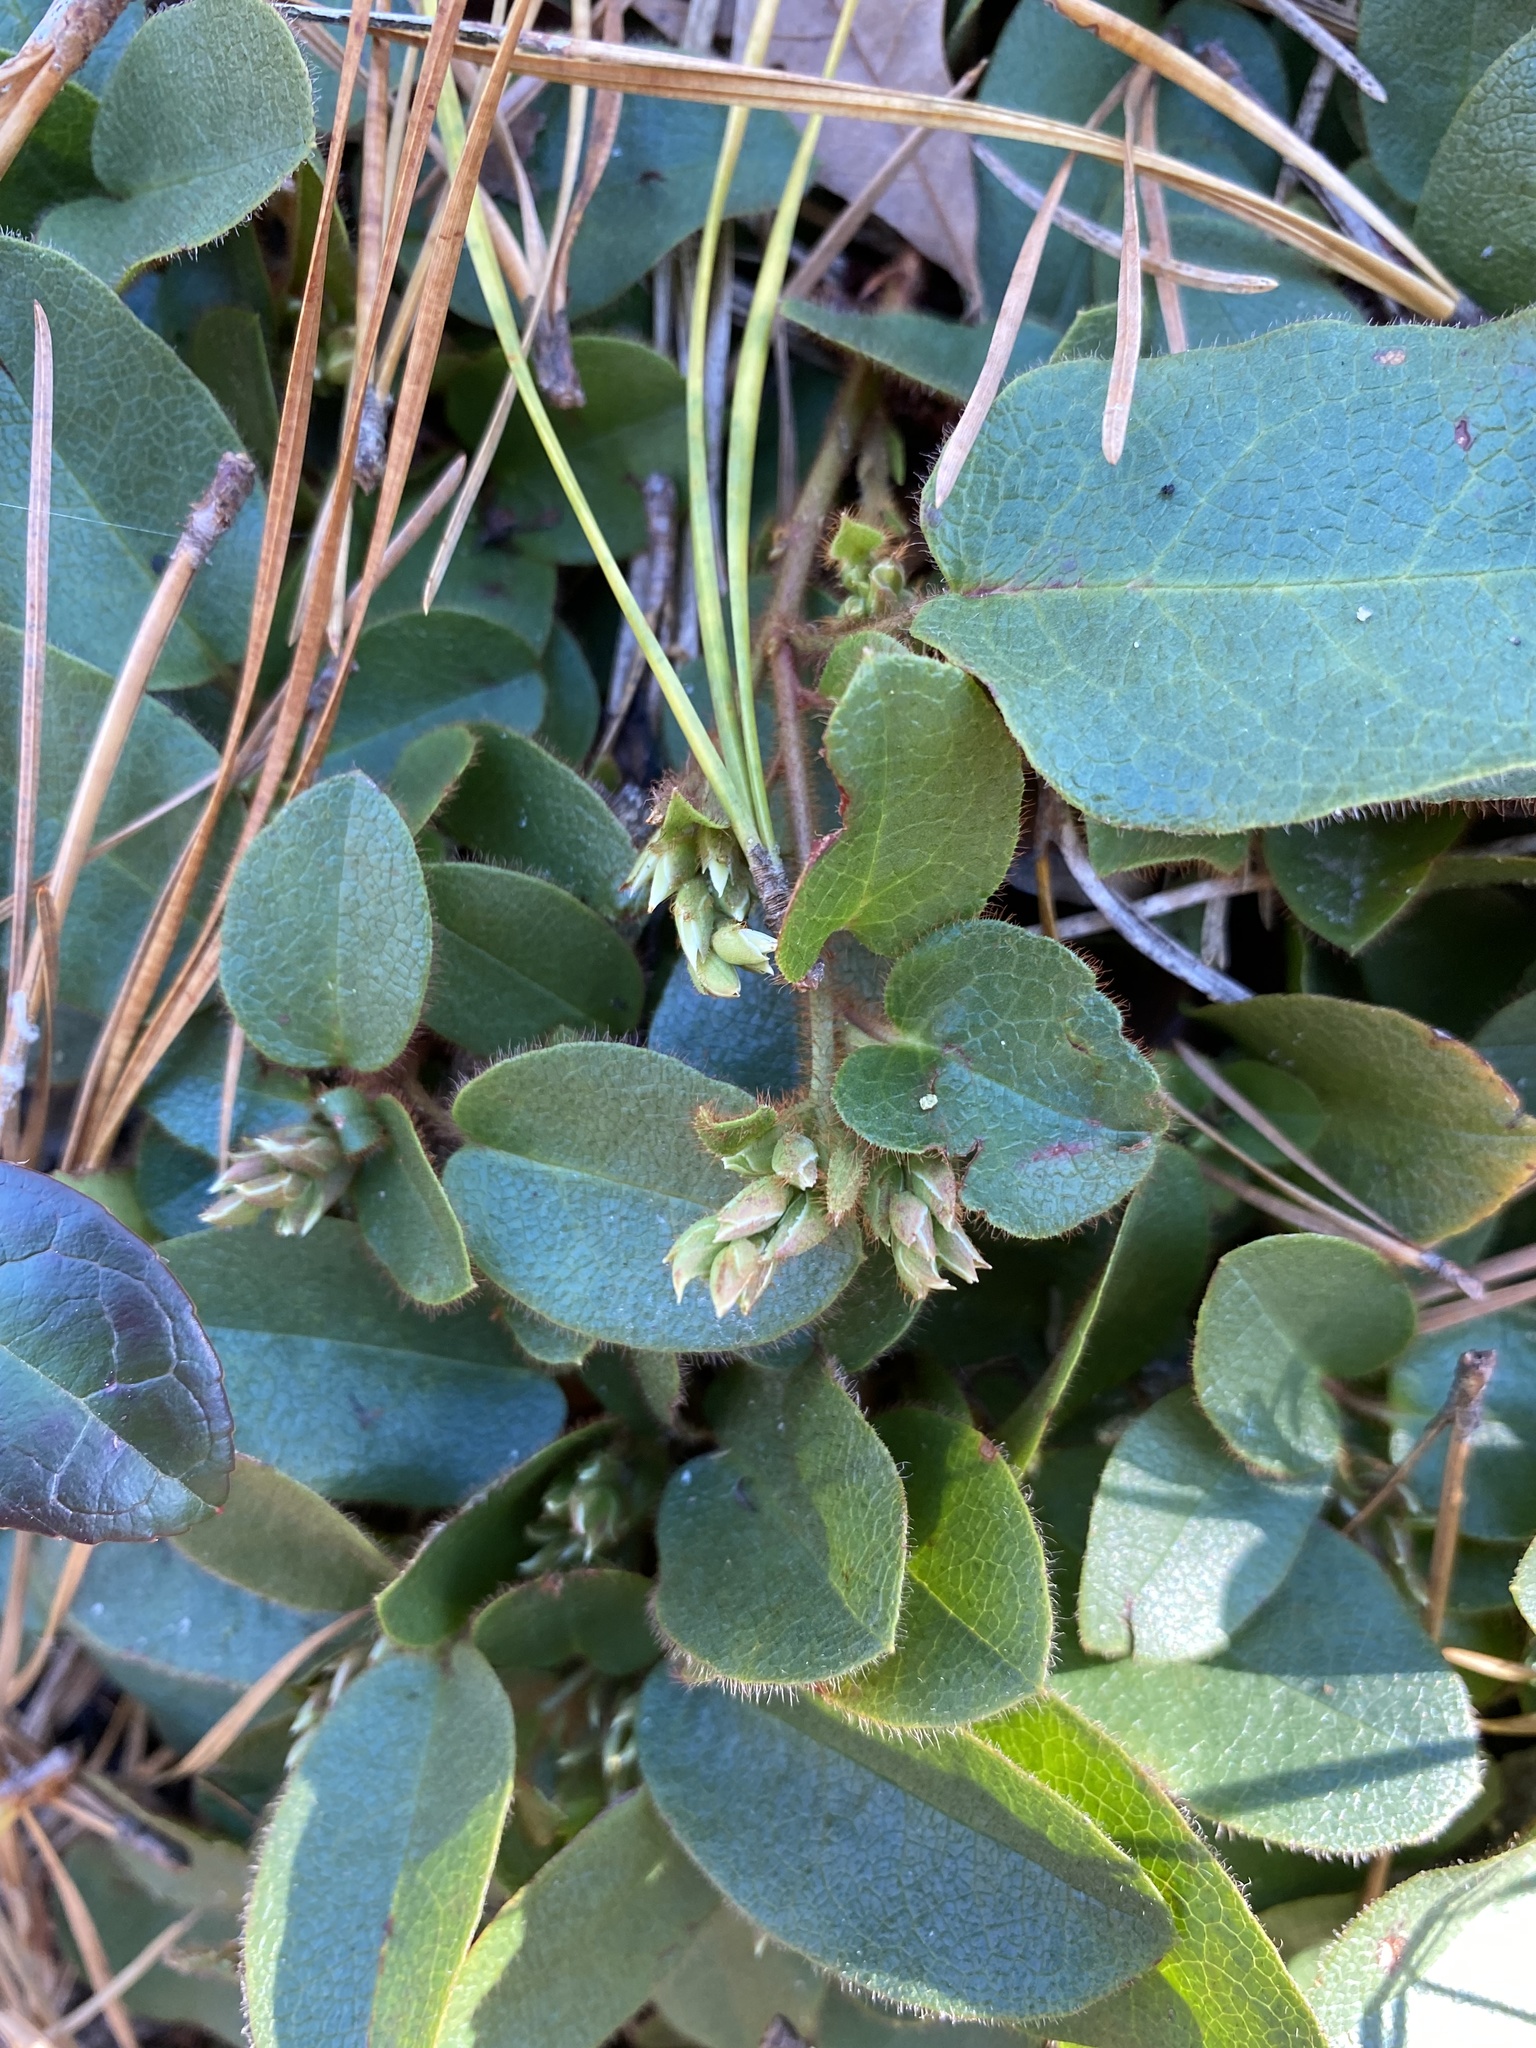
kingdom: Plantae
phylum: Tracheophyta
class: Magnoliopsida
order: Ericales
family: Ericaceae
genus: Epigaea
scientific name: Epigaea repens
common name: Gravelroot
